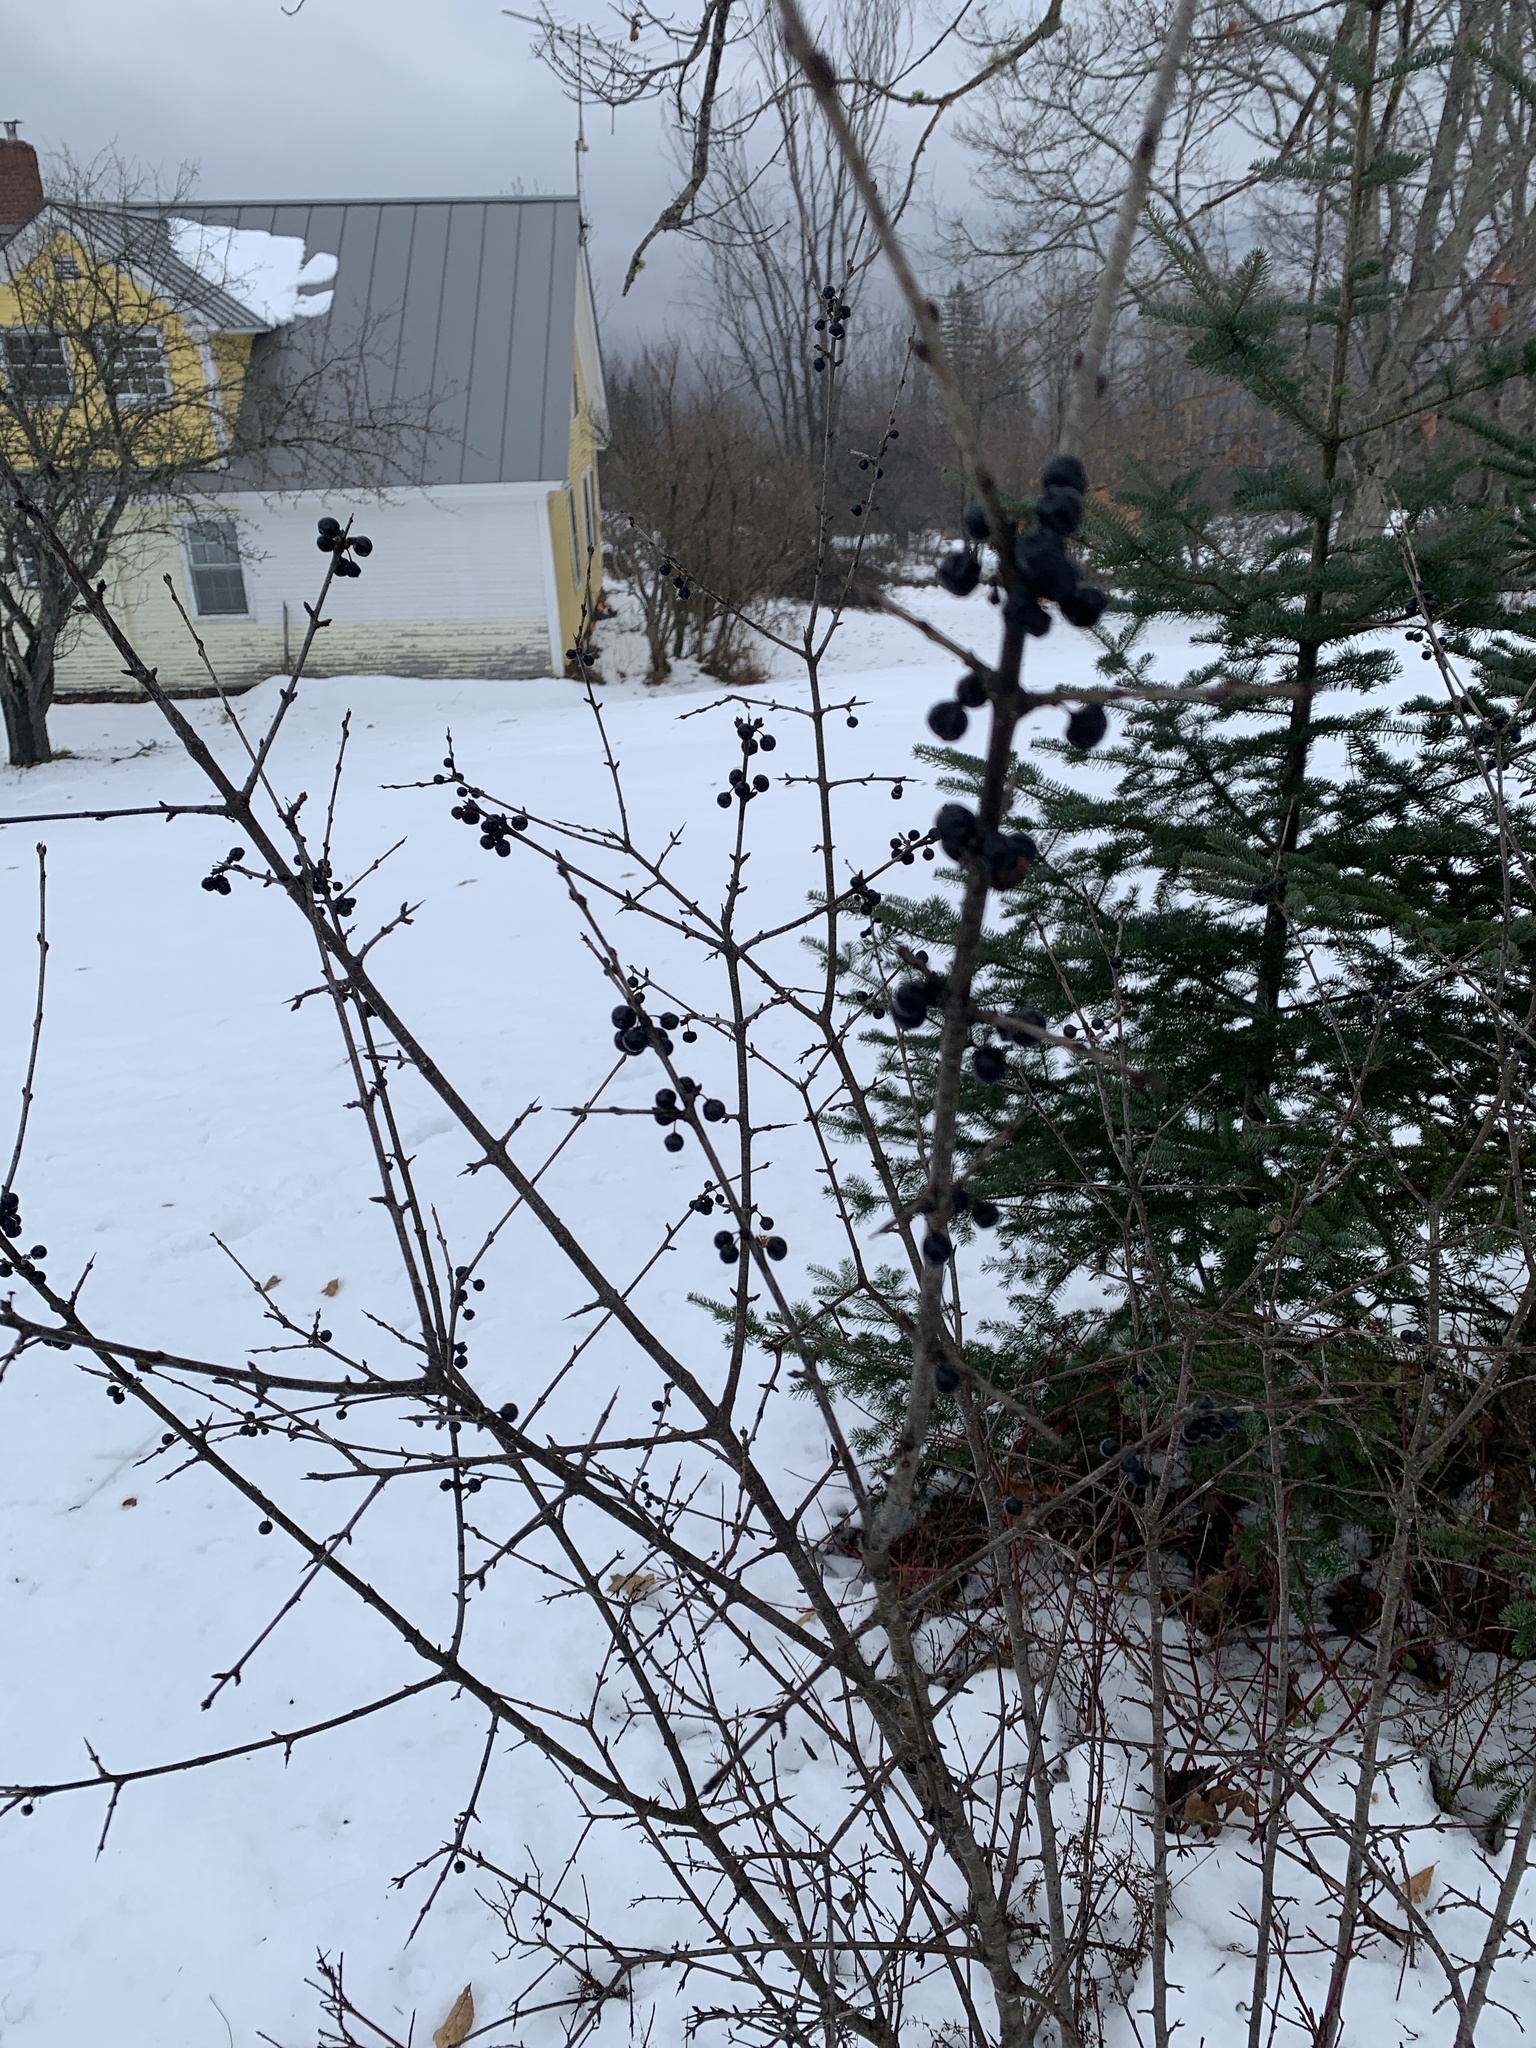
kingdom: Plantae
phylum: Tracheophyta
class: Magnoliopsida
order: Rosales
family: Rhamnaceae
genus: Rhamnus
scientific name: Rhamnus cathartica
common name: Common buckthorn
